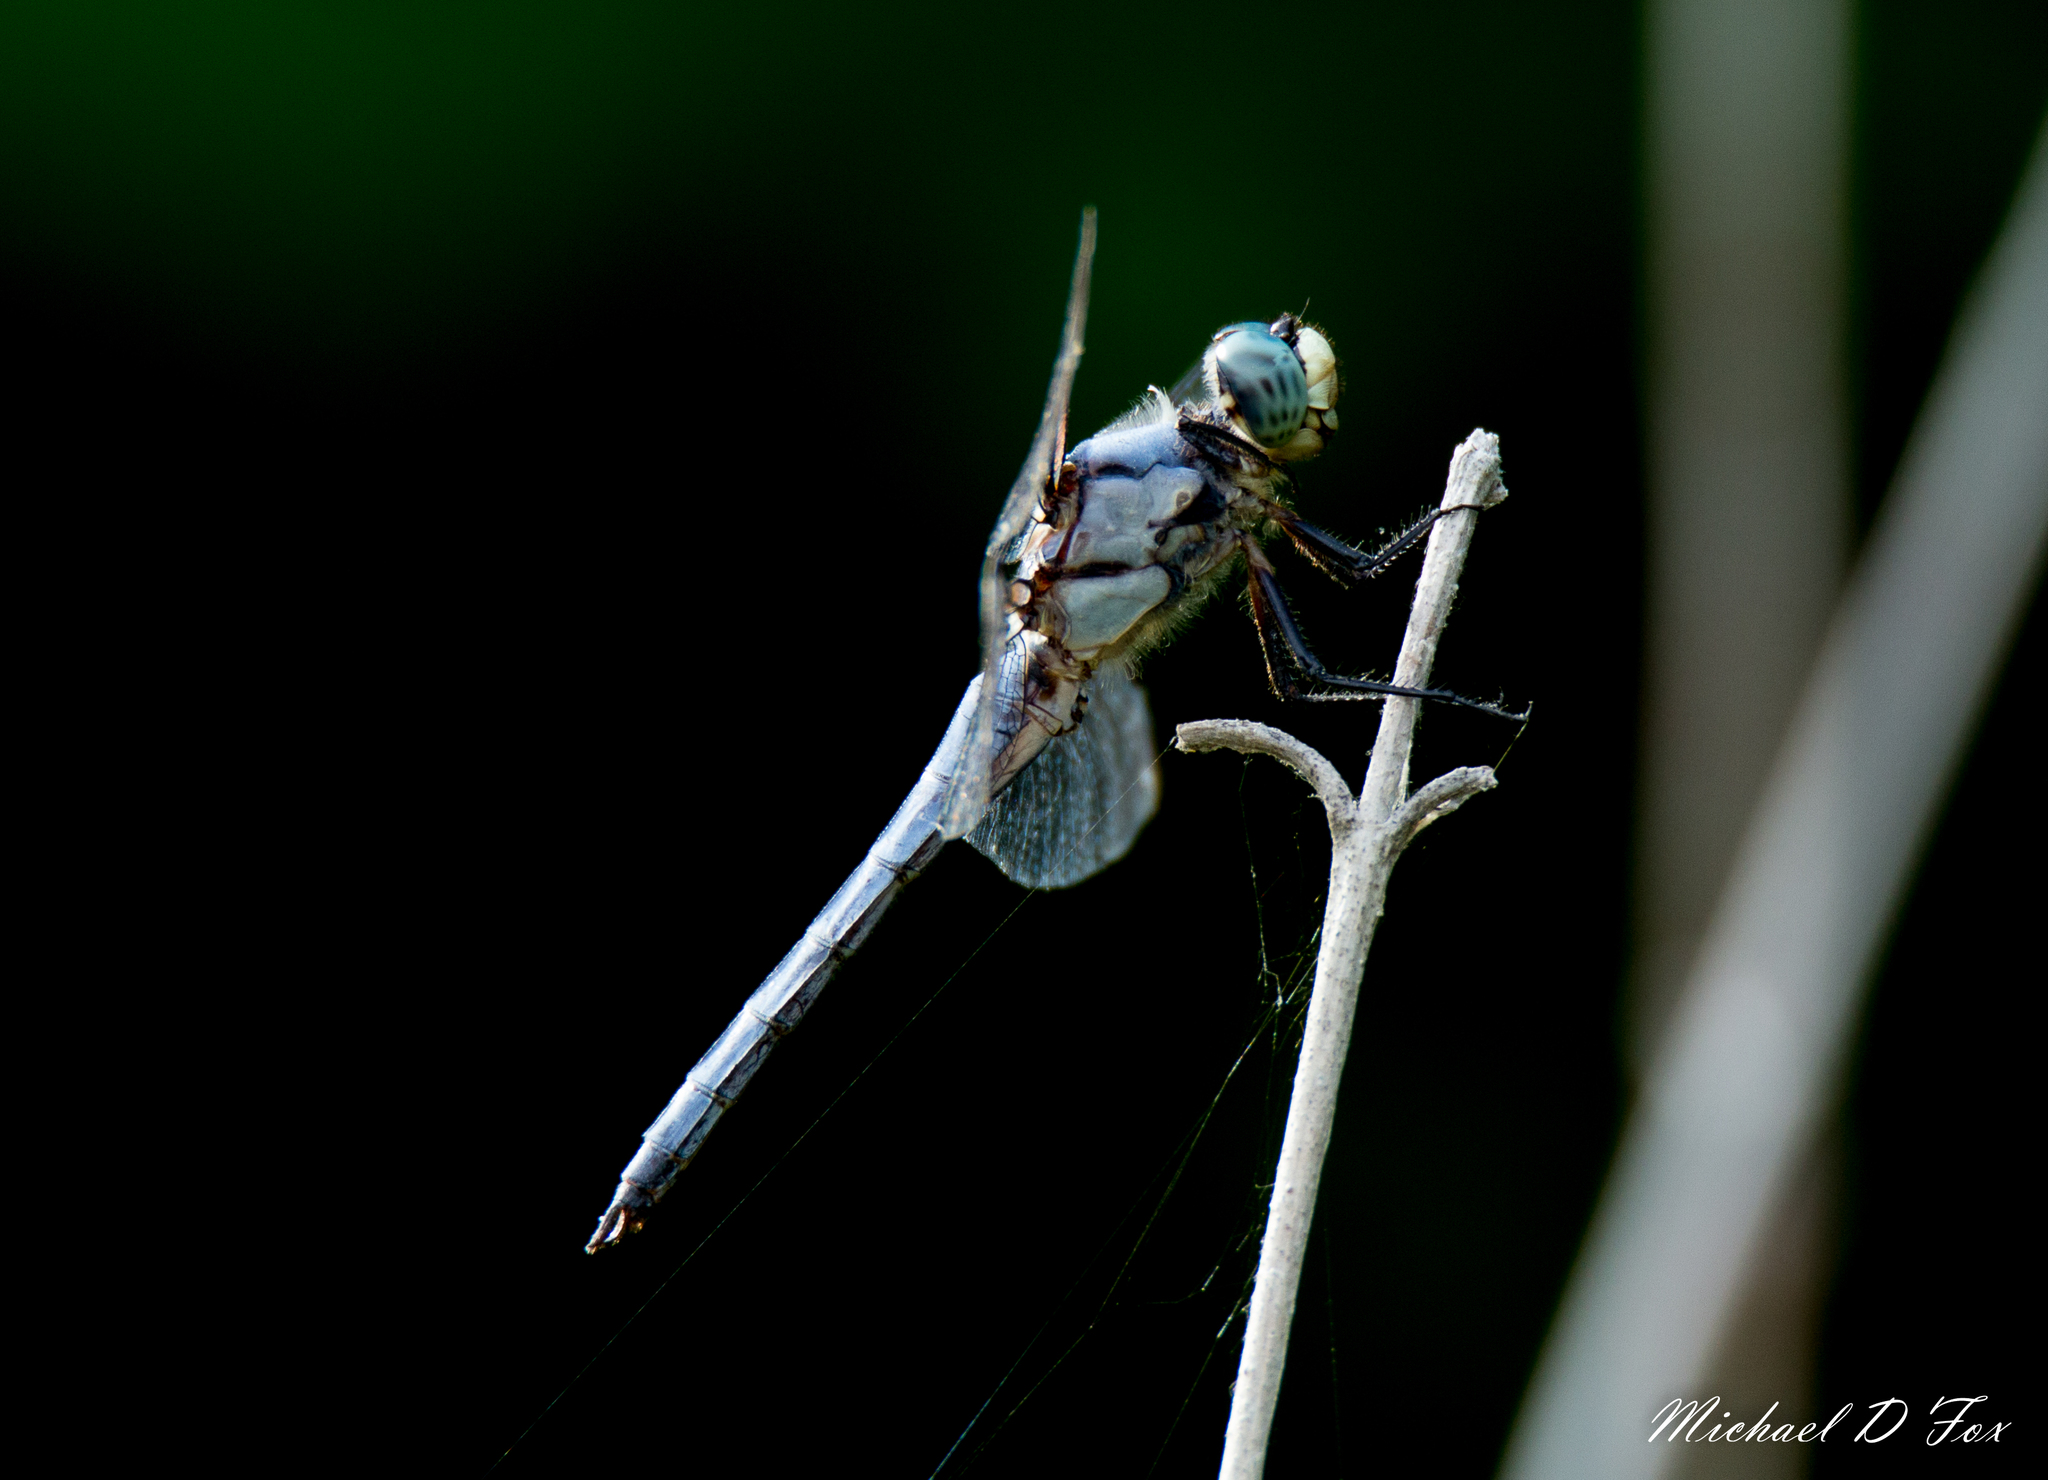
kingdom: Animalia
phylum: Arthropoda
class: Insecta
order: Odonata
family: Libellulidae
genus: Libellula
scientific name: Libellula vibrans
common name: Great blue skimmer
